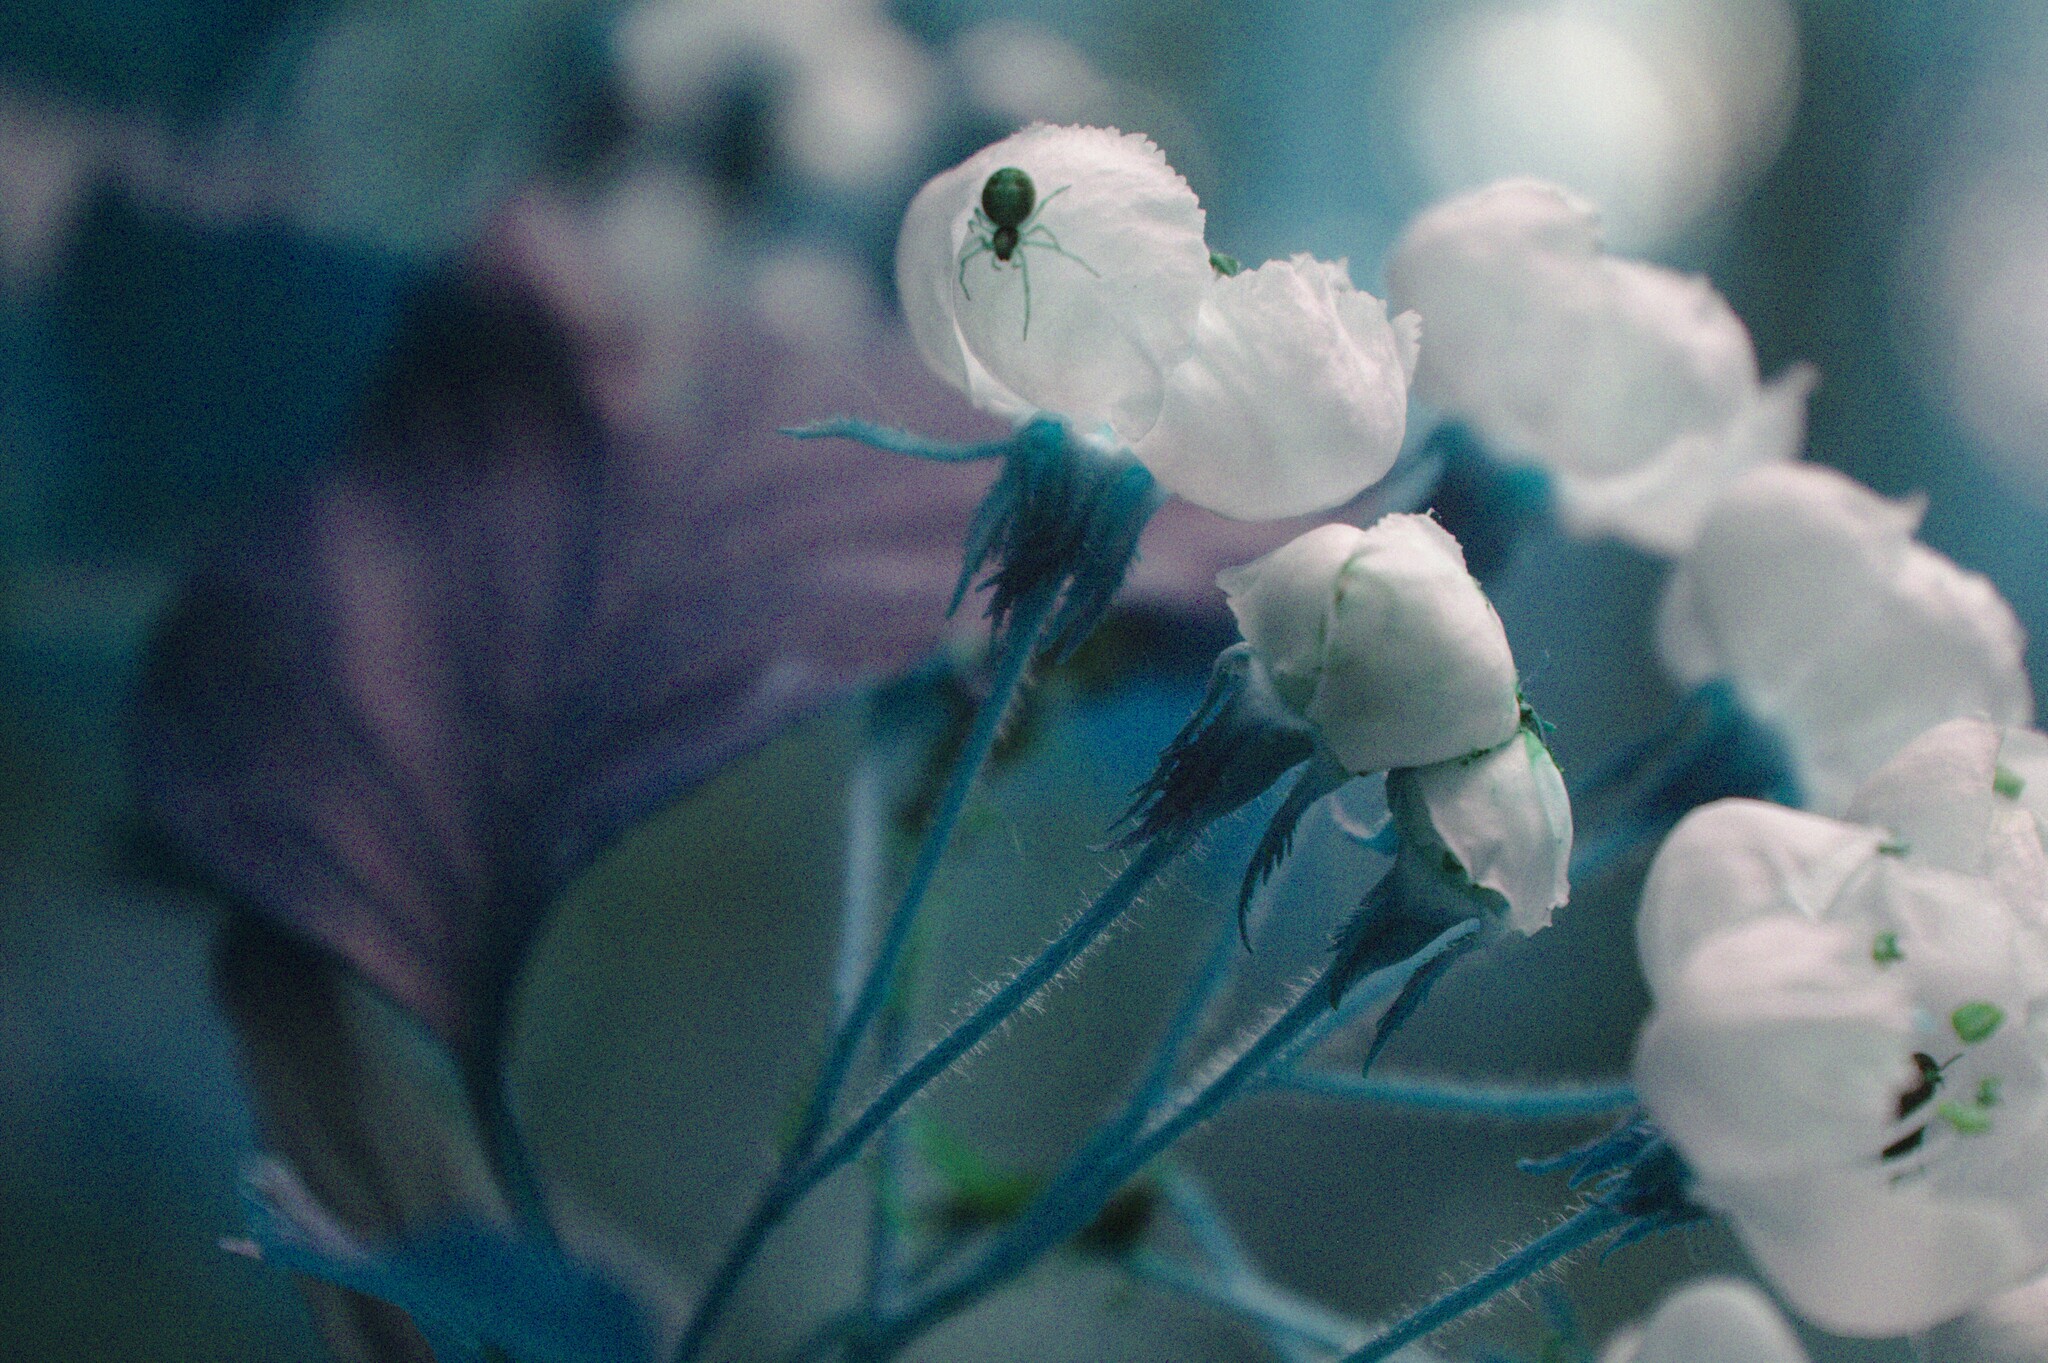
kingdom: Plantae
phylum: Tracheophyta
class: Magnoliopsida
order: Rosales
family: Rosaceae
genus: Crataegus
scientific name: Crataegus macracantha
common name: Large-thorn hawthorn
